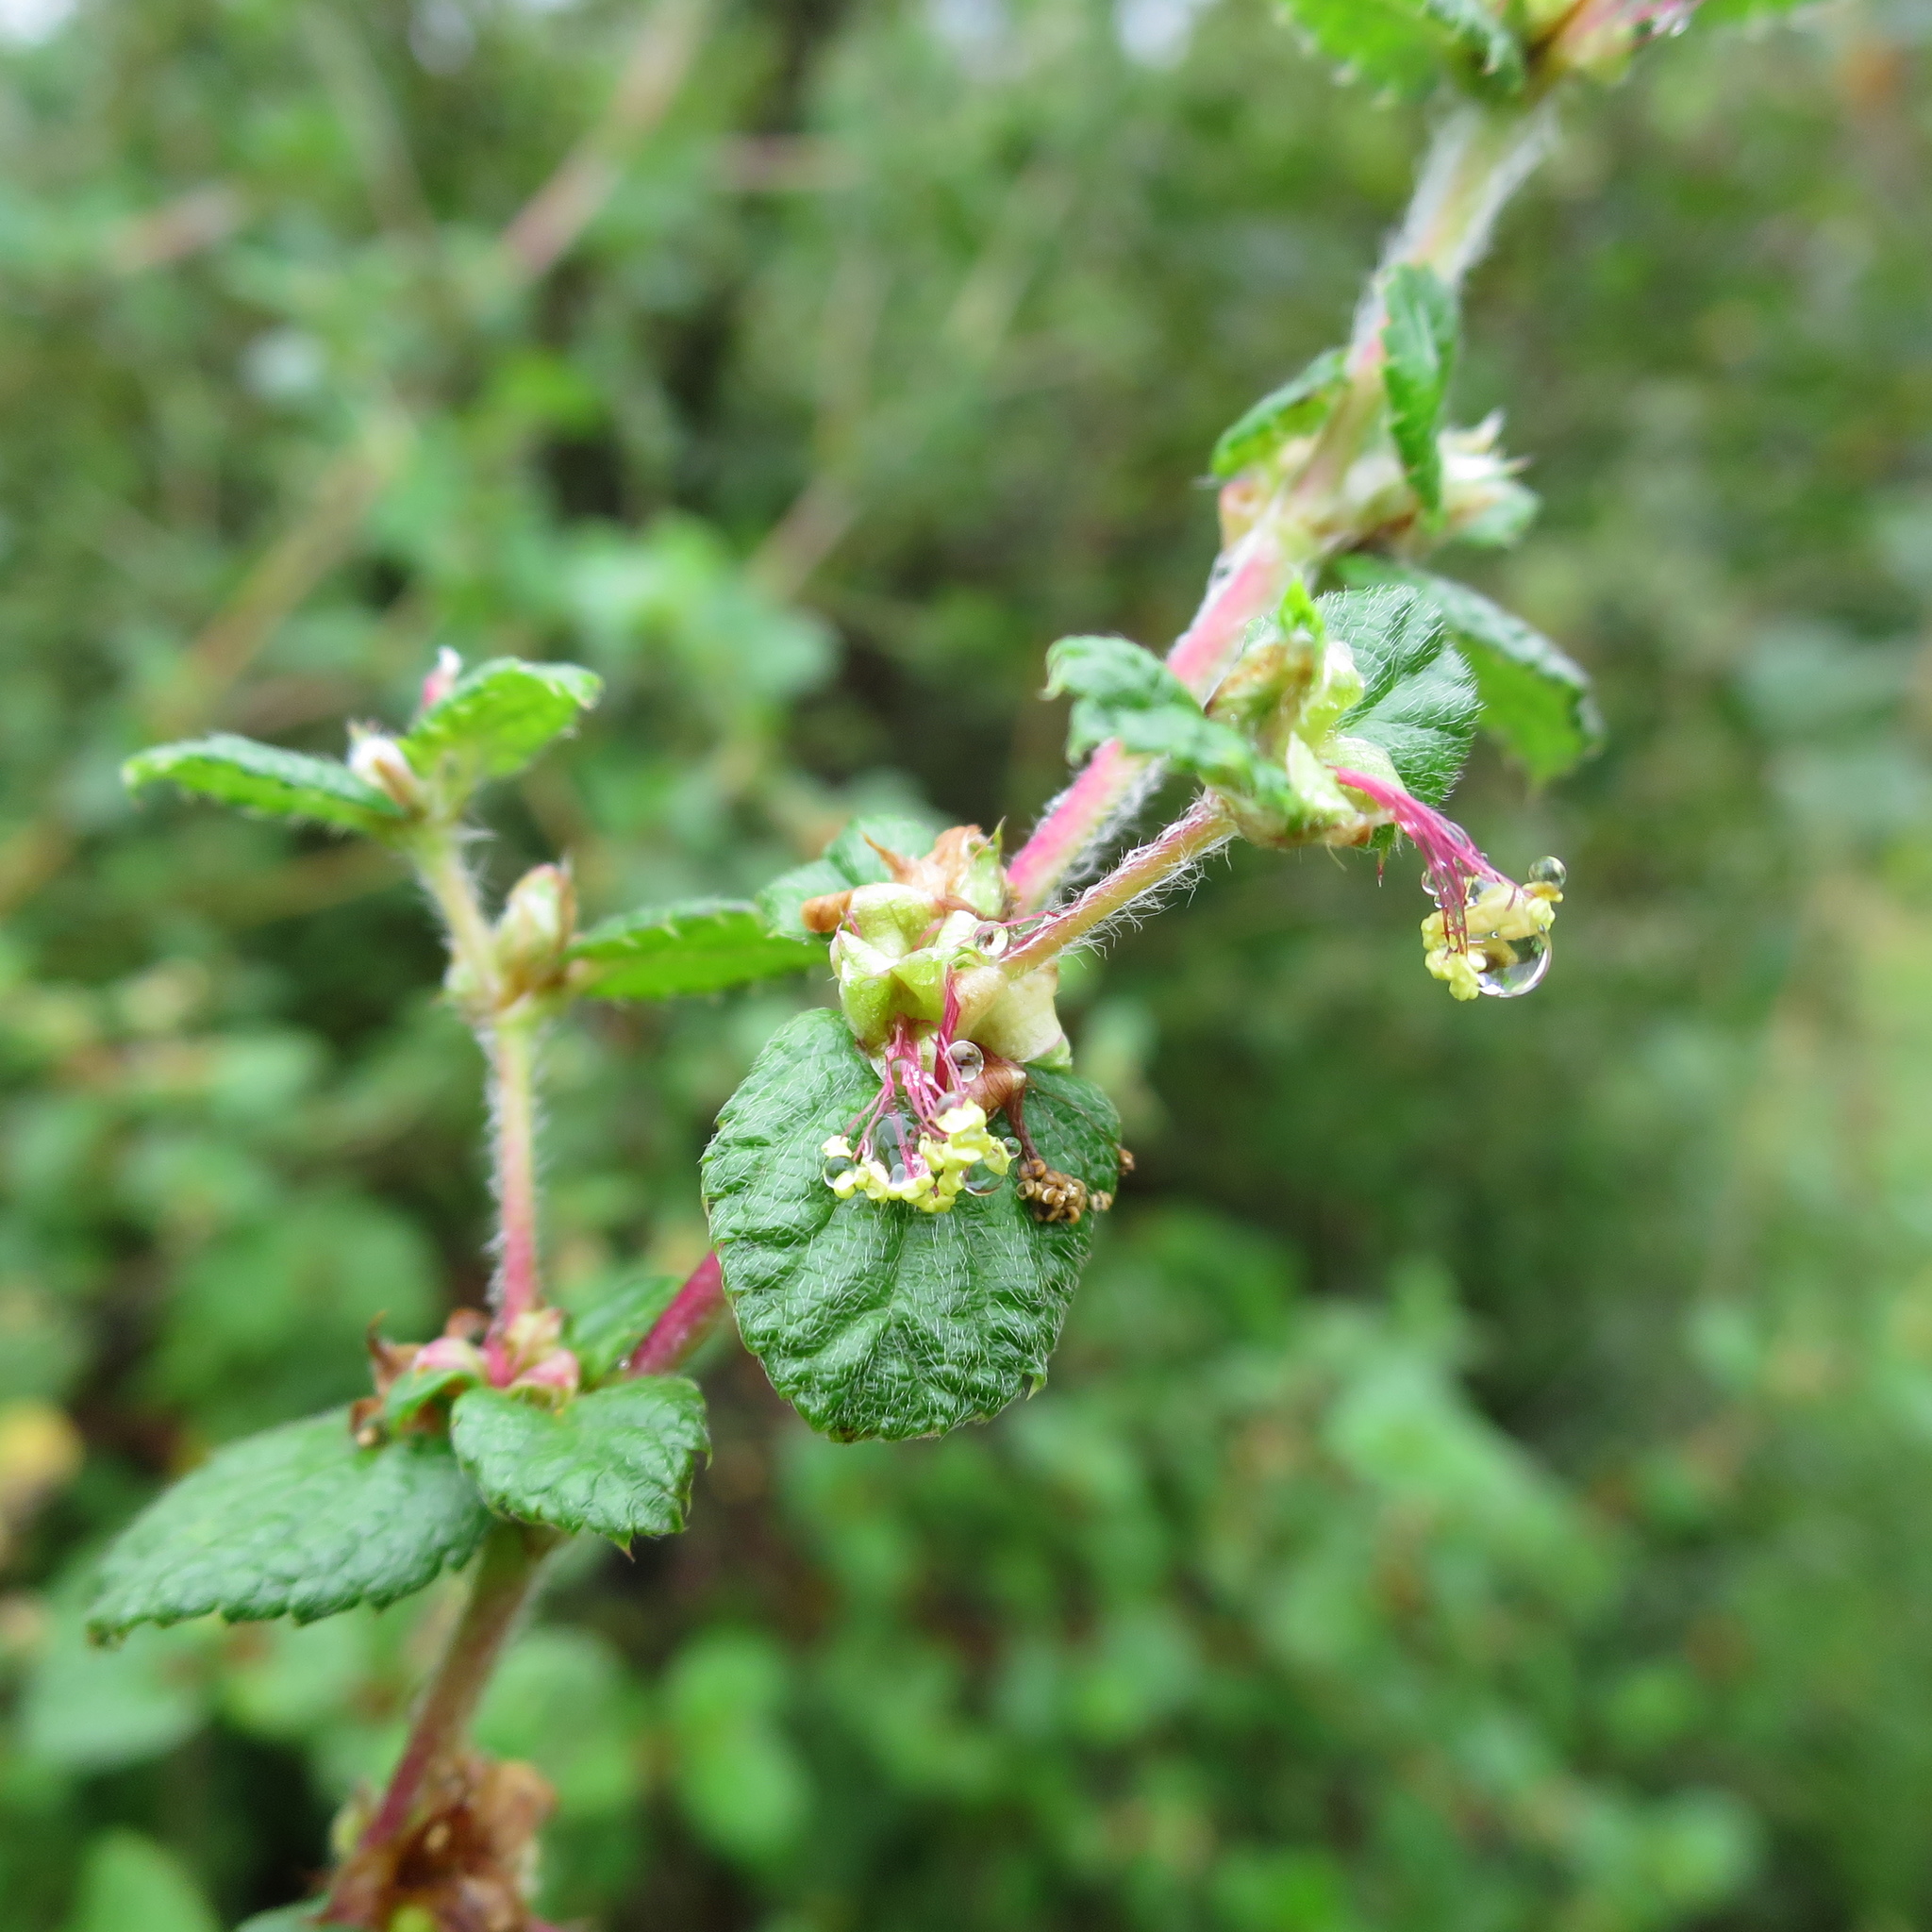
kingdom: Plantae
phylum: Tracheophyta
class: Magnoliopsida
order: Rosales
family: Rosaceae
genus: Cliffortia
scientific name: Cliffortia odorata
